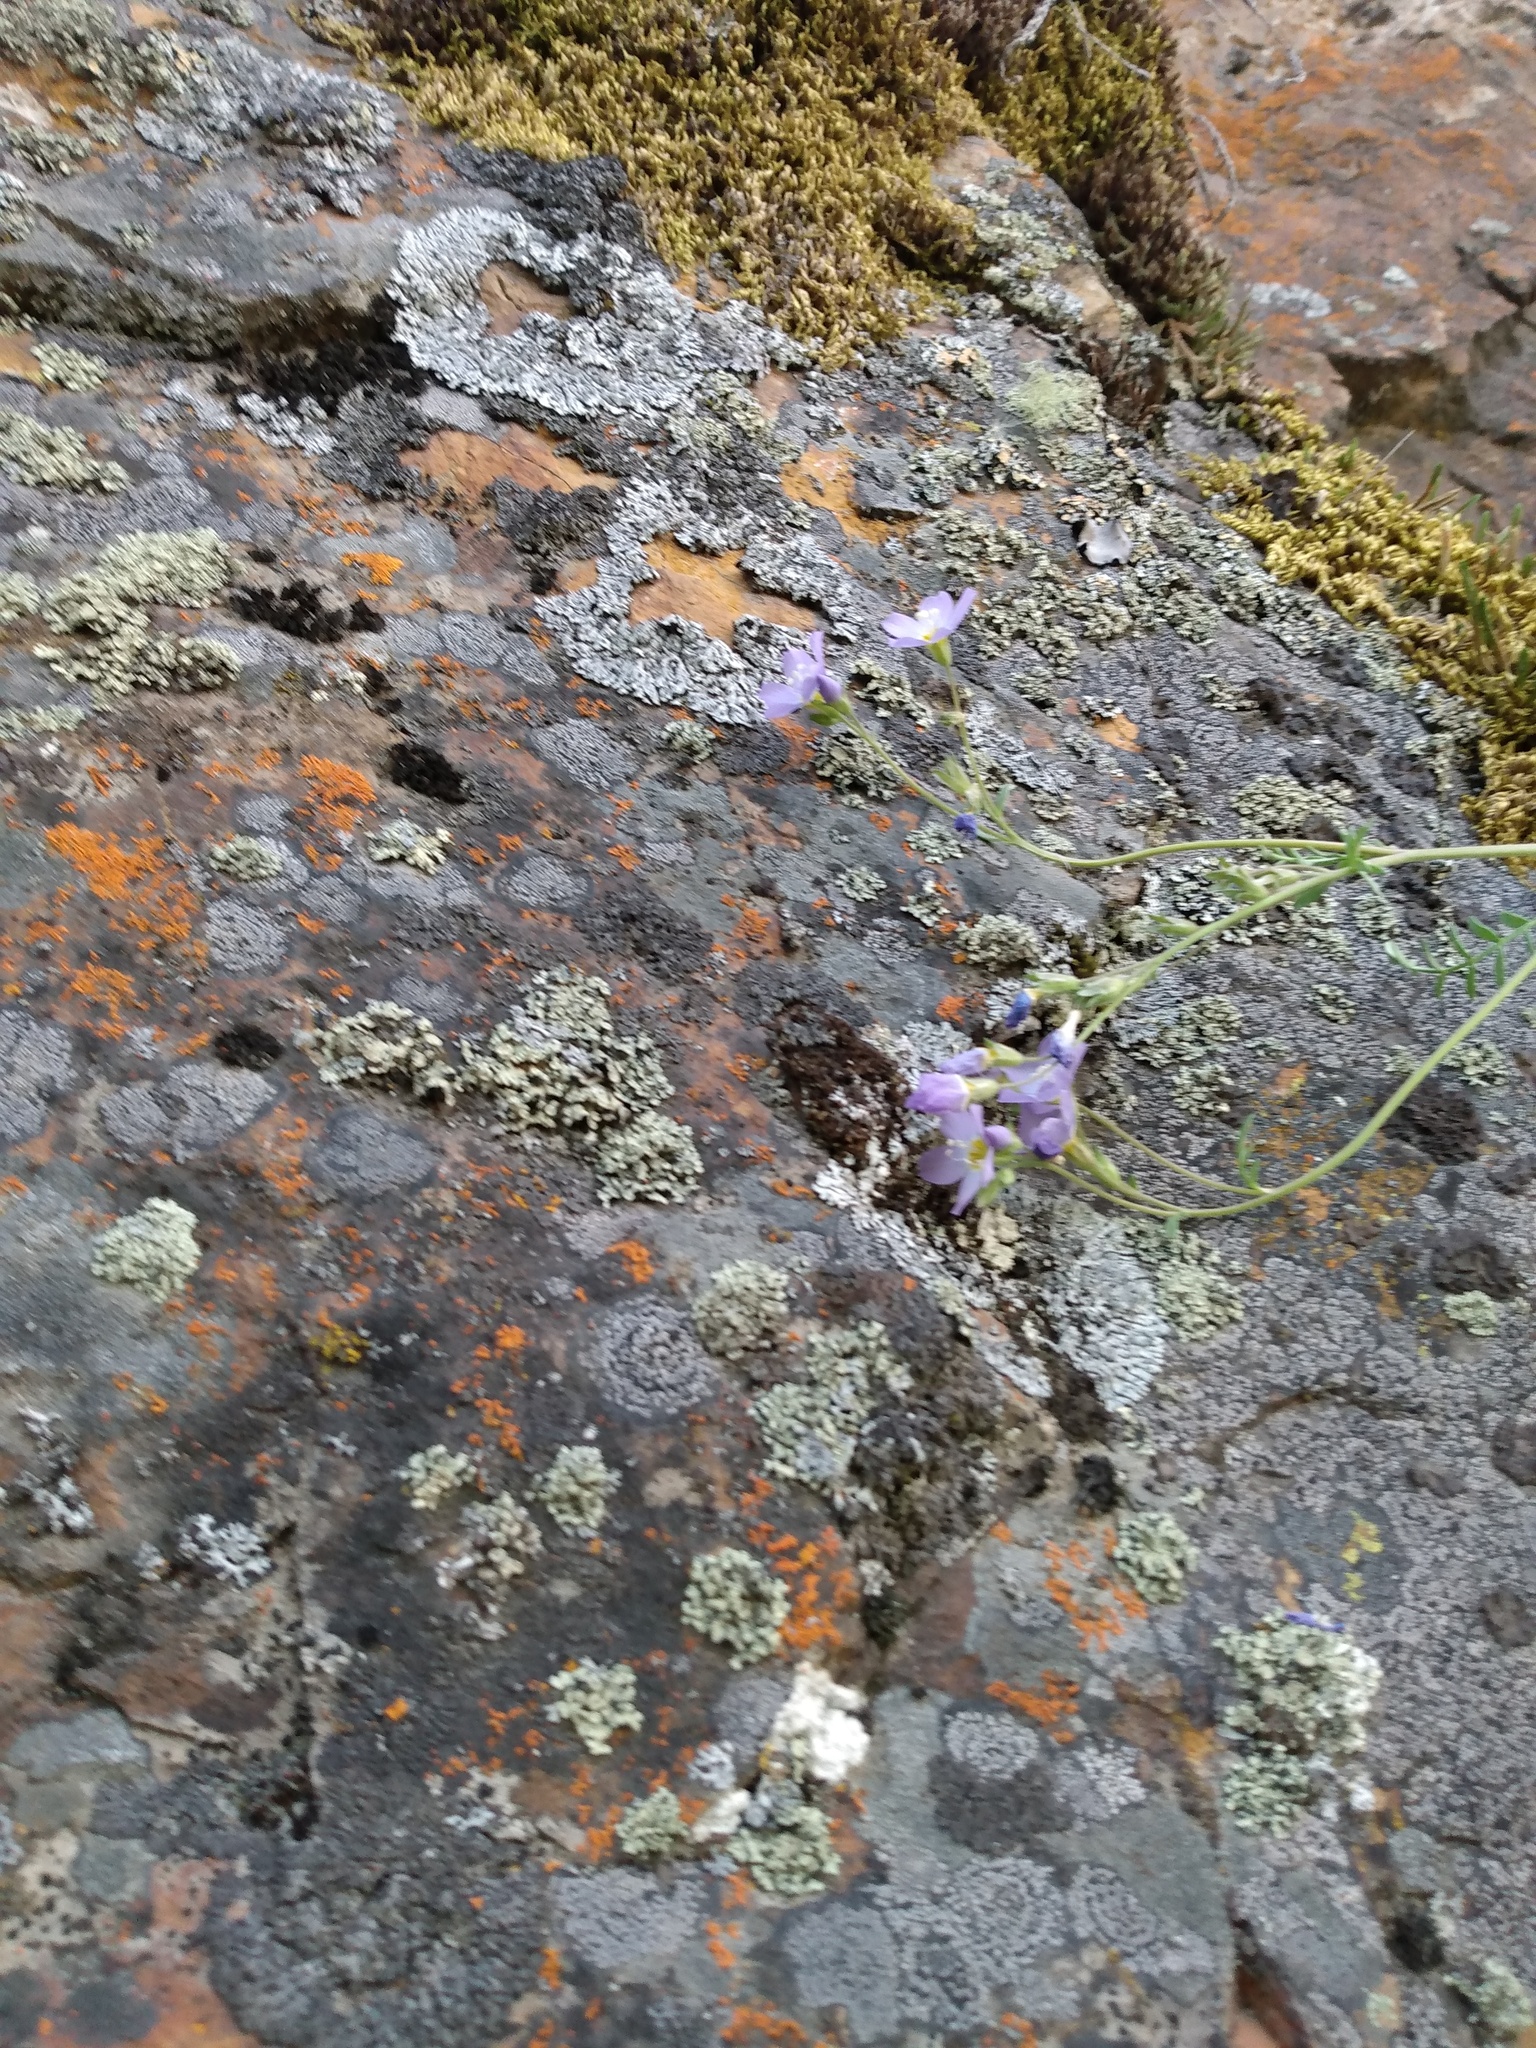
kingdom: Plantae
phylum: Tracheophyta
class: Magnoliopsida
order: Ericales
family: Polemoniaceae
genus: Polemonium
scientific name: Polemonium pulcherrimum
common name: Short jacob's-ladder
